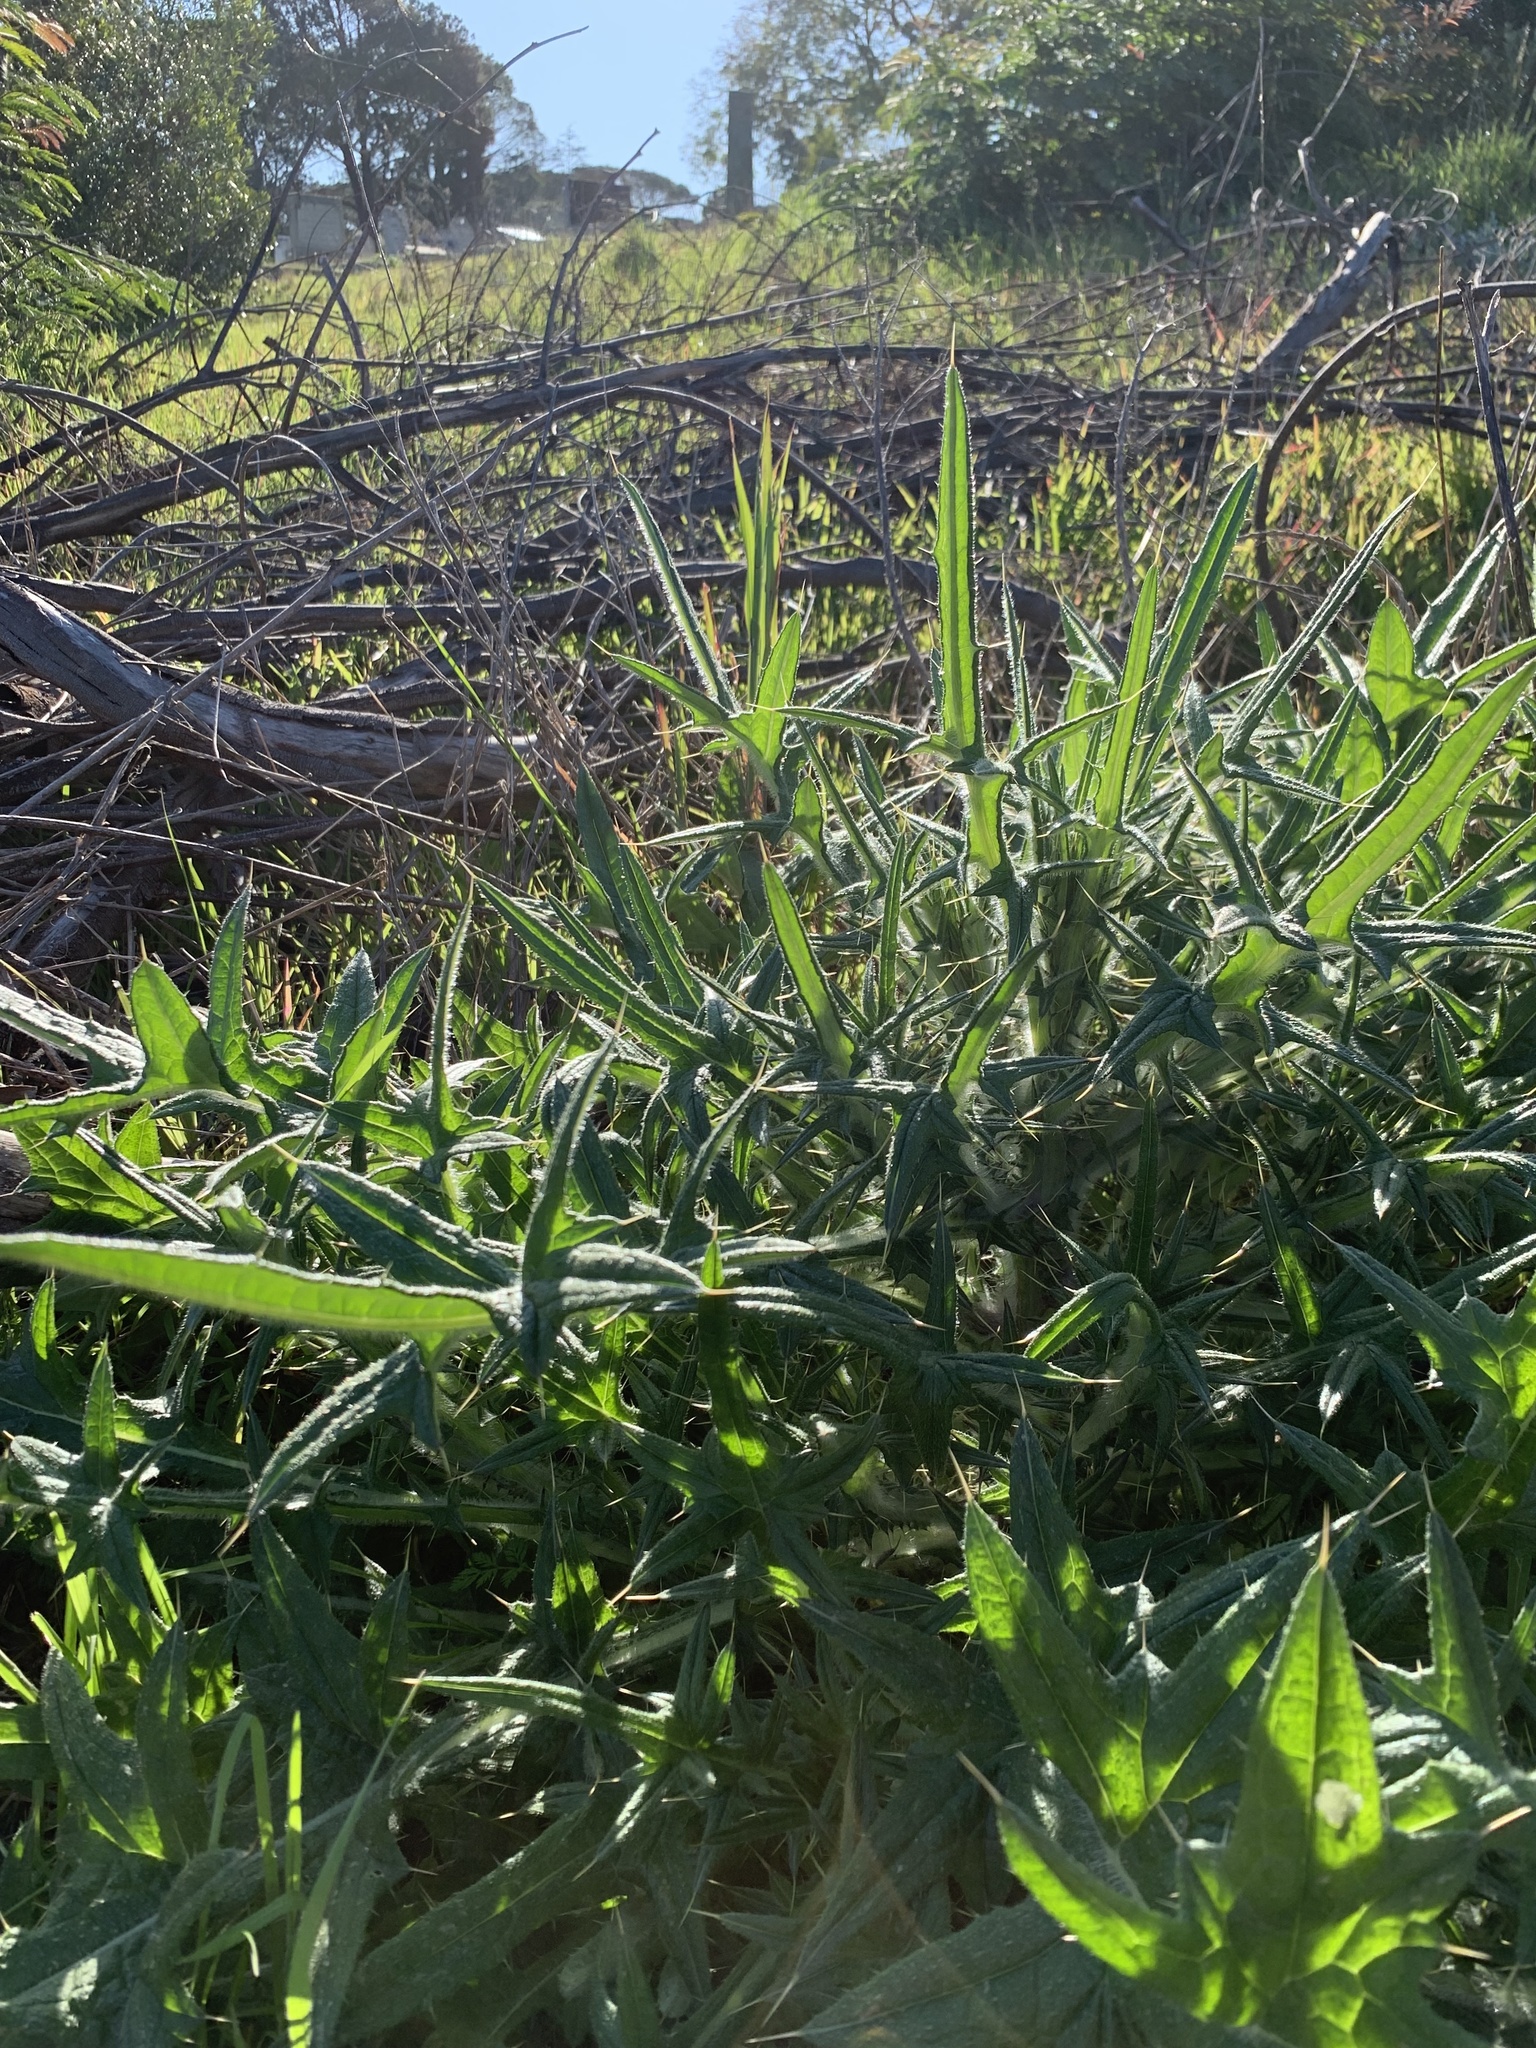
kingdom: Plantae
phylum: Tracheophyta
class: Magnoliopsida
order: Asterales
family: Asteraceae
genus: Cirsium
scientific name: Cirsium vulgare
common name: Bull thistle
